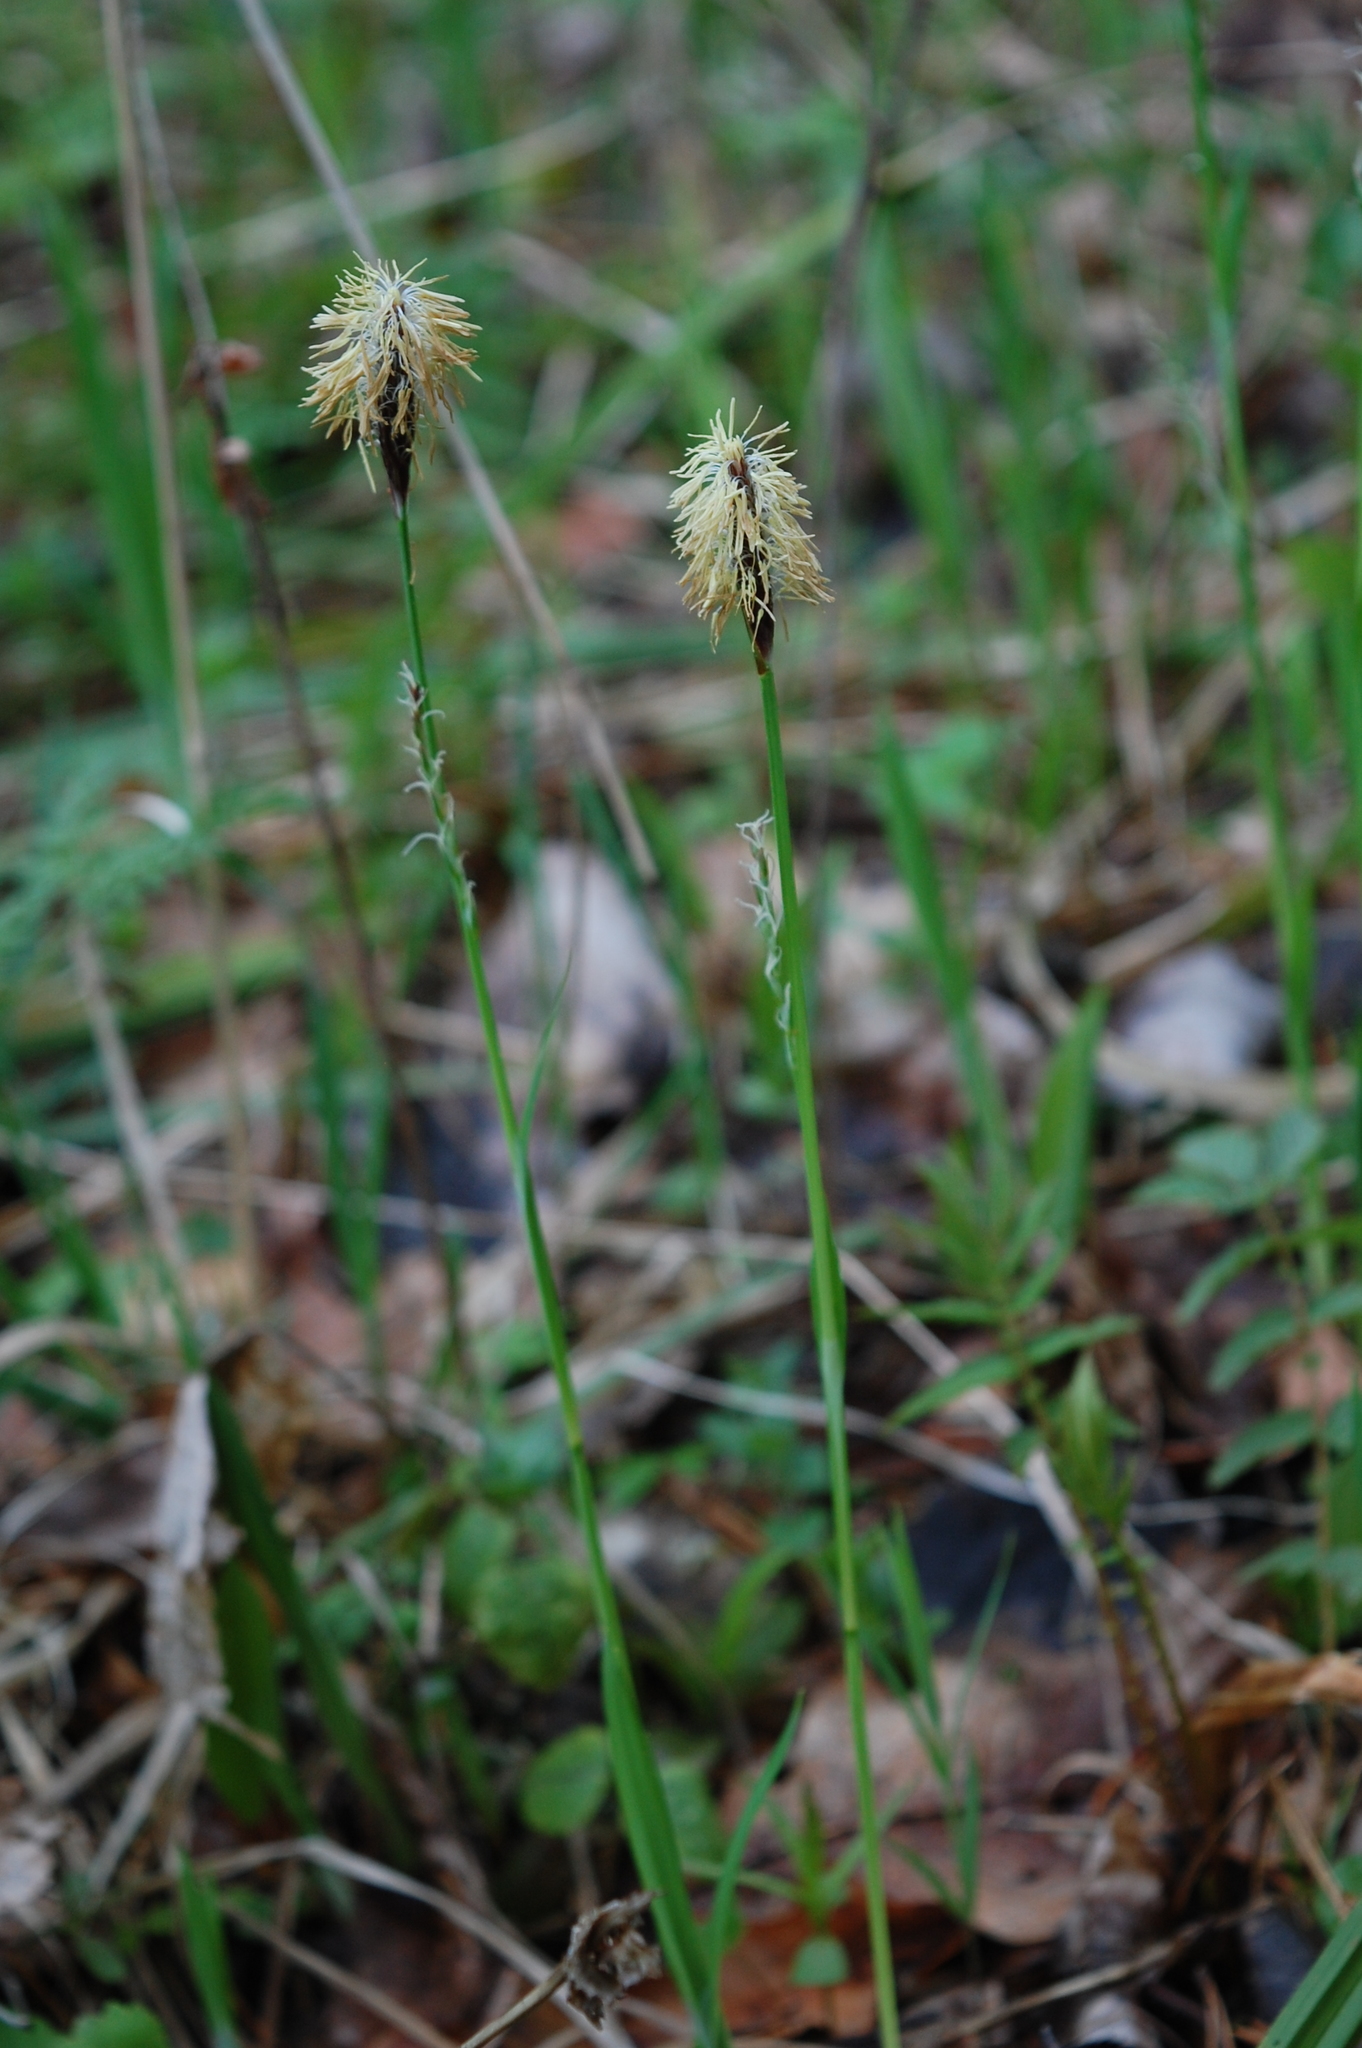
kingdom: Plantae
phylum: Tracheophyta
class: Liliopsida
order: Poales
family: Cyperaceae
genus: Carex
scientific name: Carex pilosa
